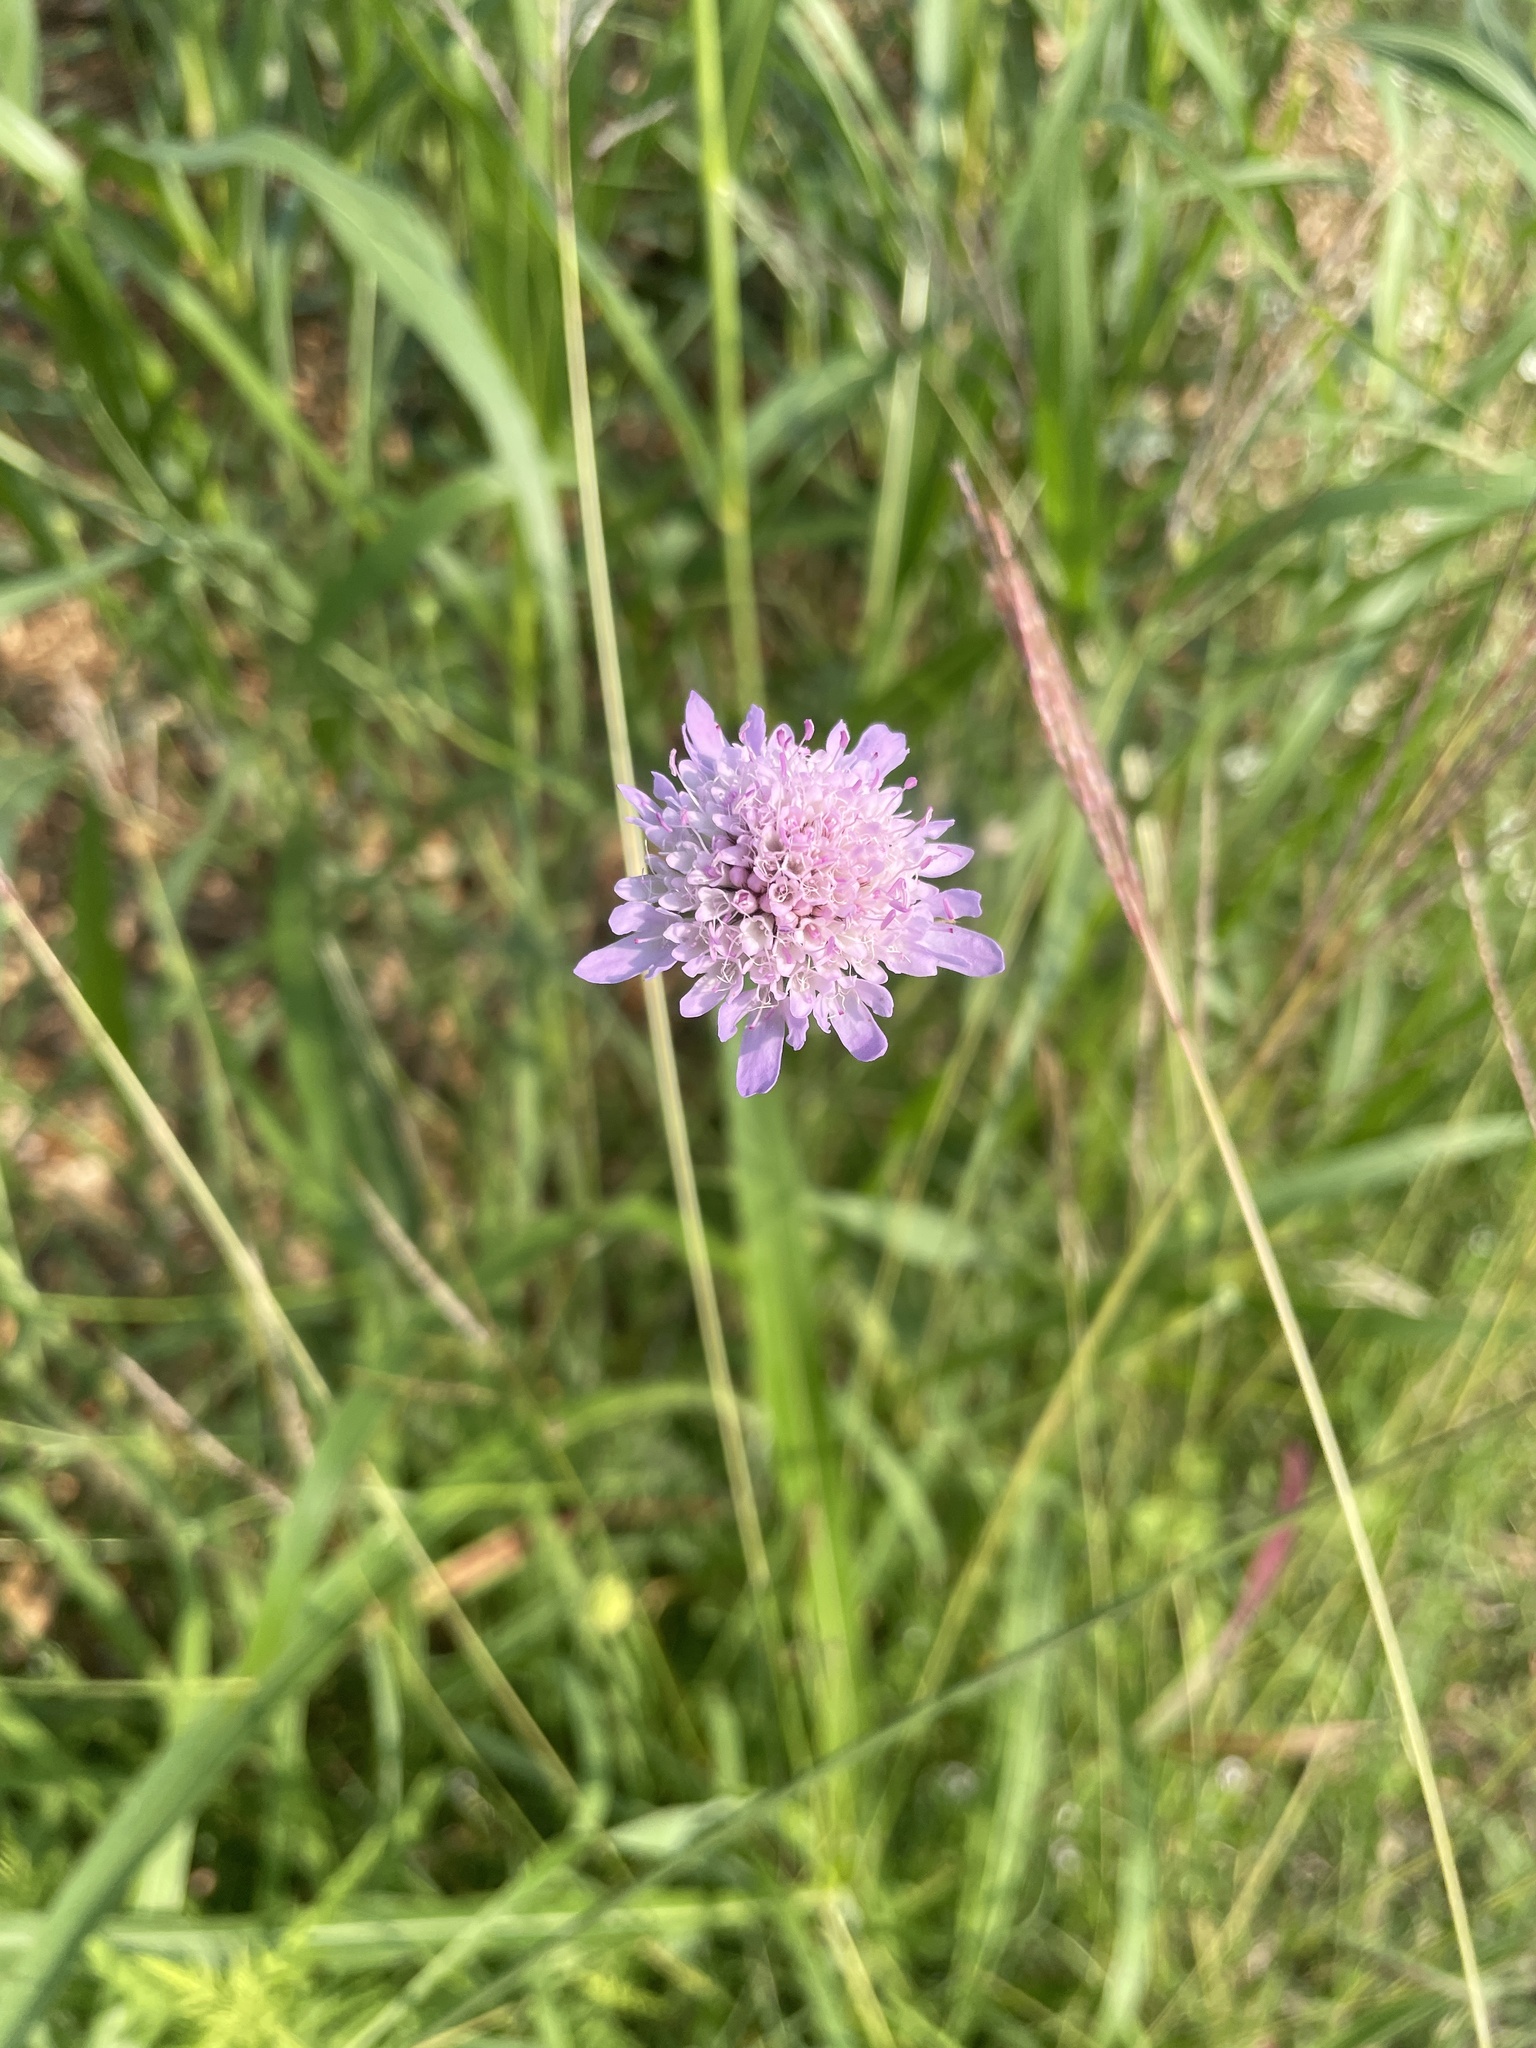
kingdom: Plantae
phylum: Tracheophyta
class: Magnoliopsida
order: Dipsacales
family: Caprifoliaceae
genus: Sixalix
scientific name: Sixalix atropurpurea
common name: Sweet scabious
